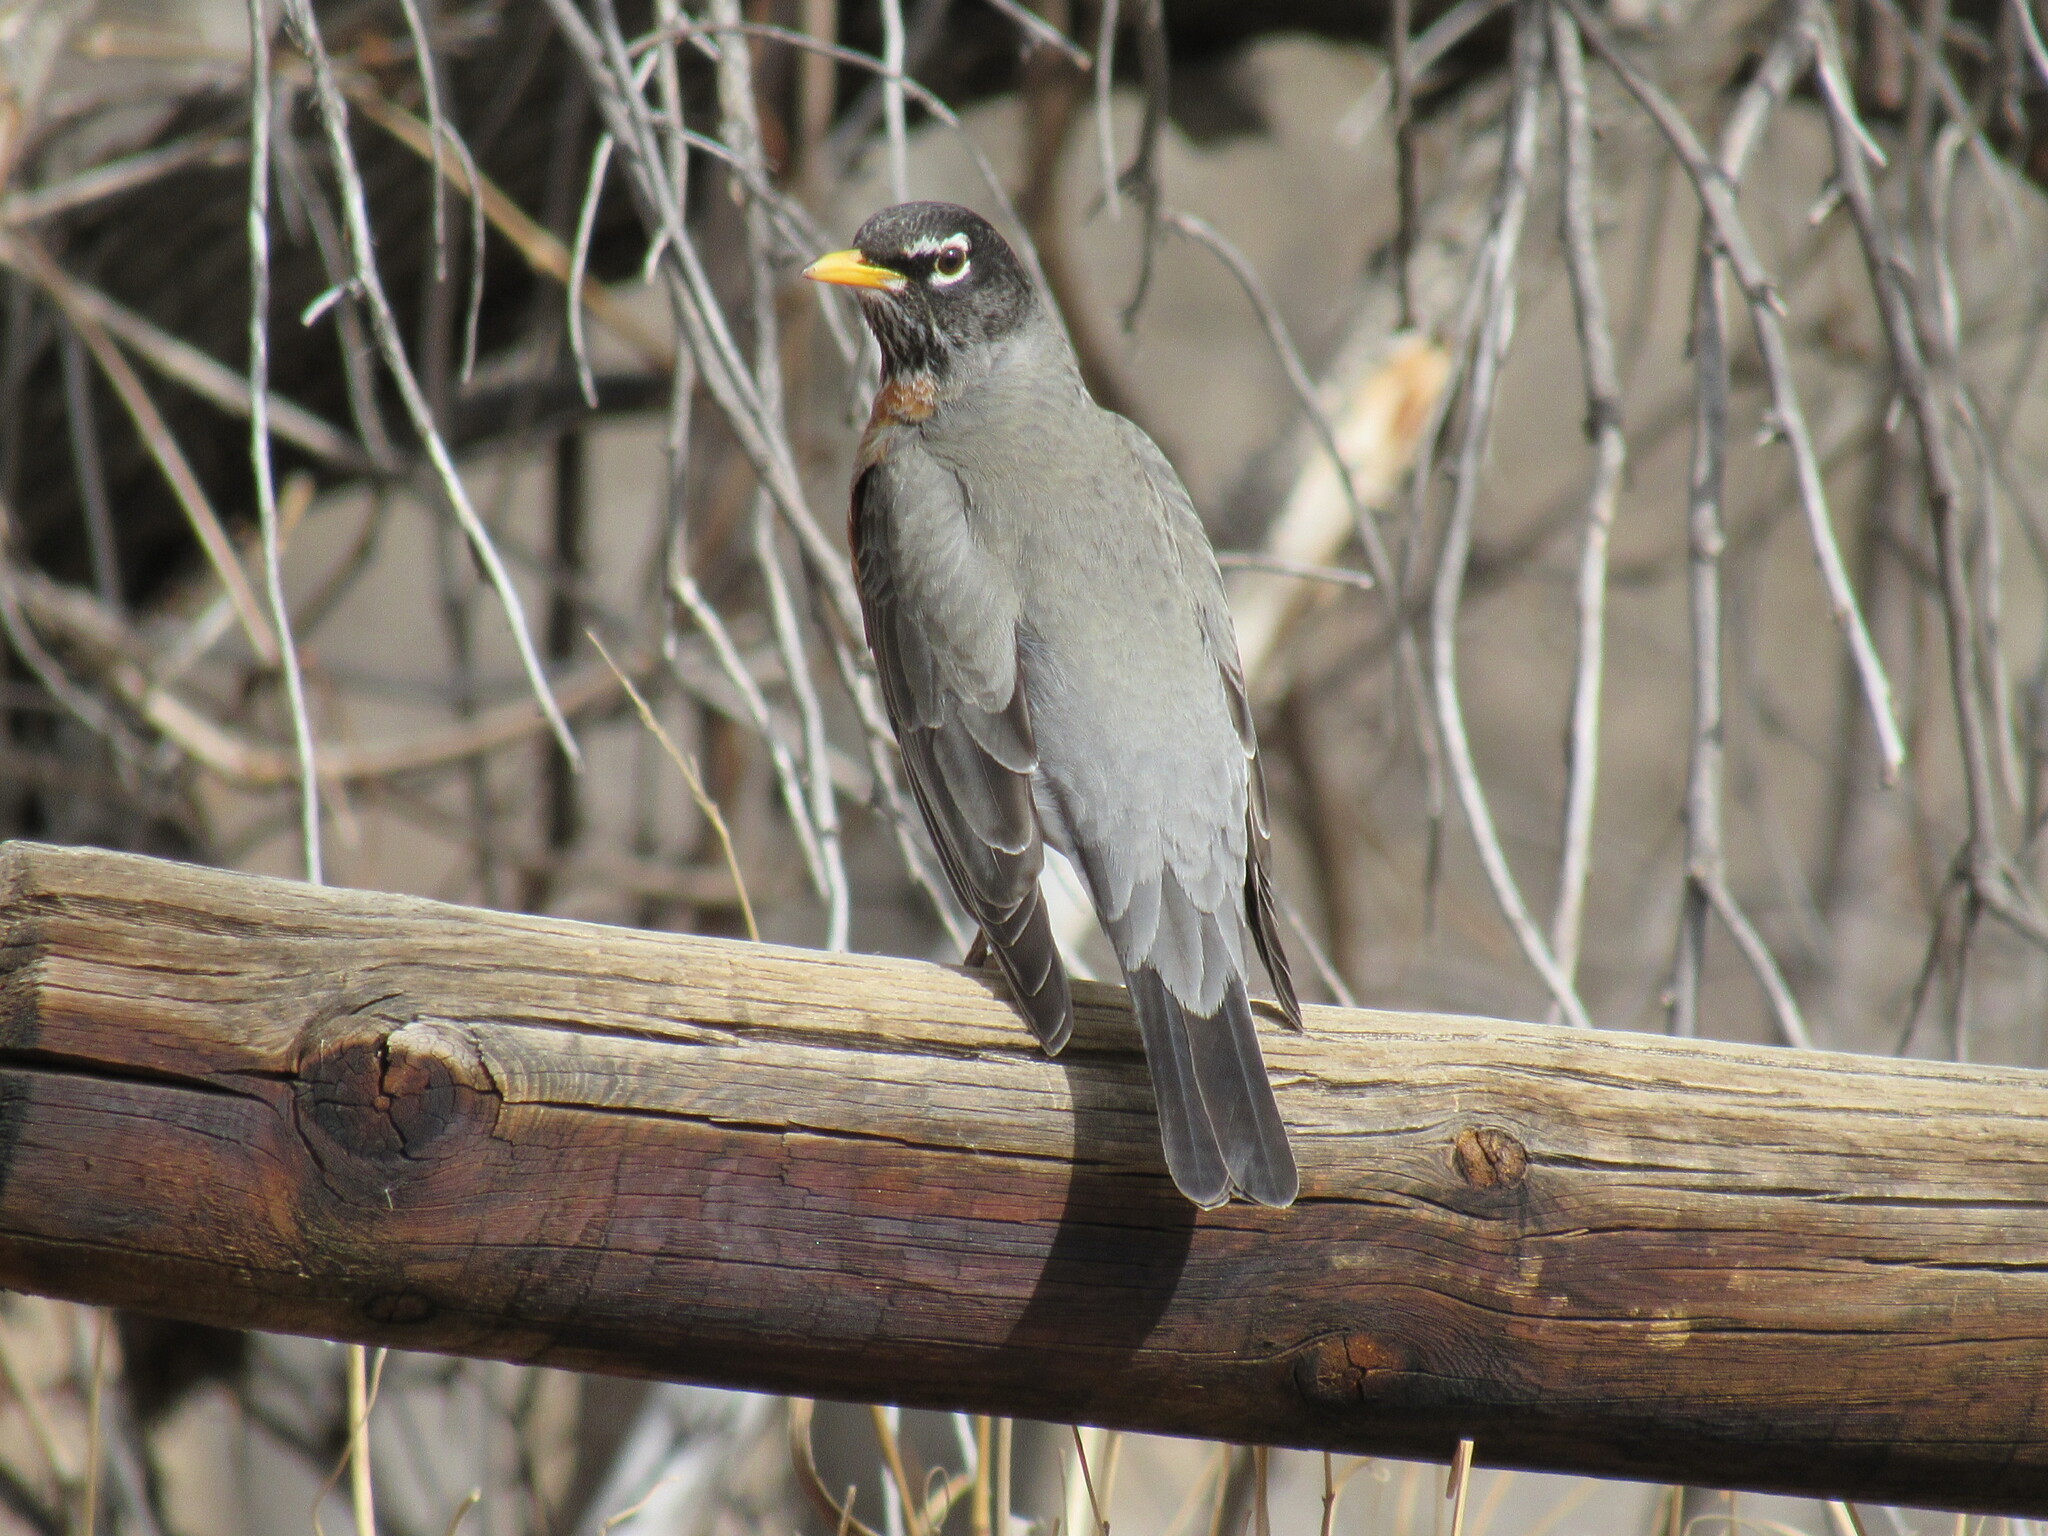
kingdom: Animalia
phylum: Chordata
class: Aves
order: Passeriformes
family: Turdidae
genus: Turdus
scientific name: Turdus migratorius
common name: American robin
